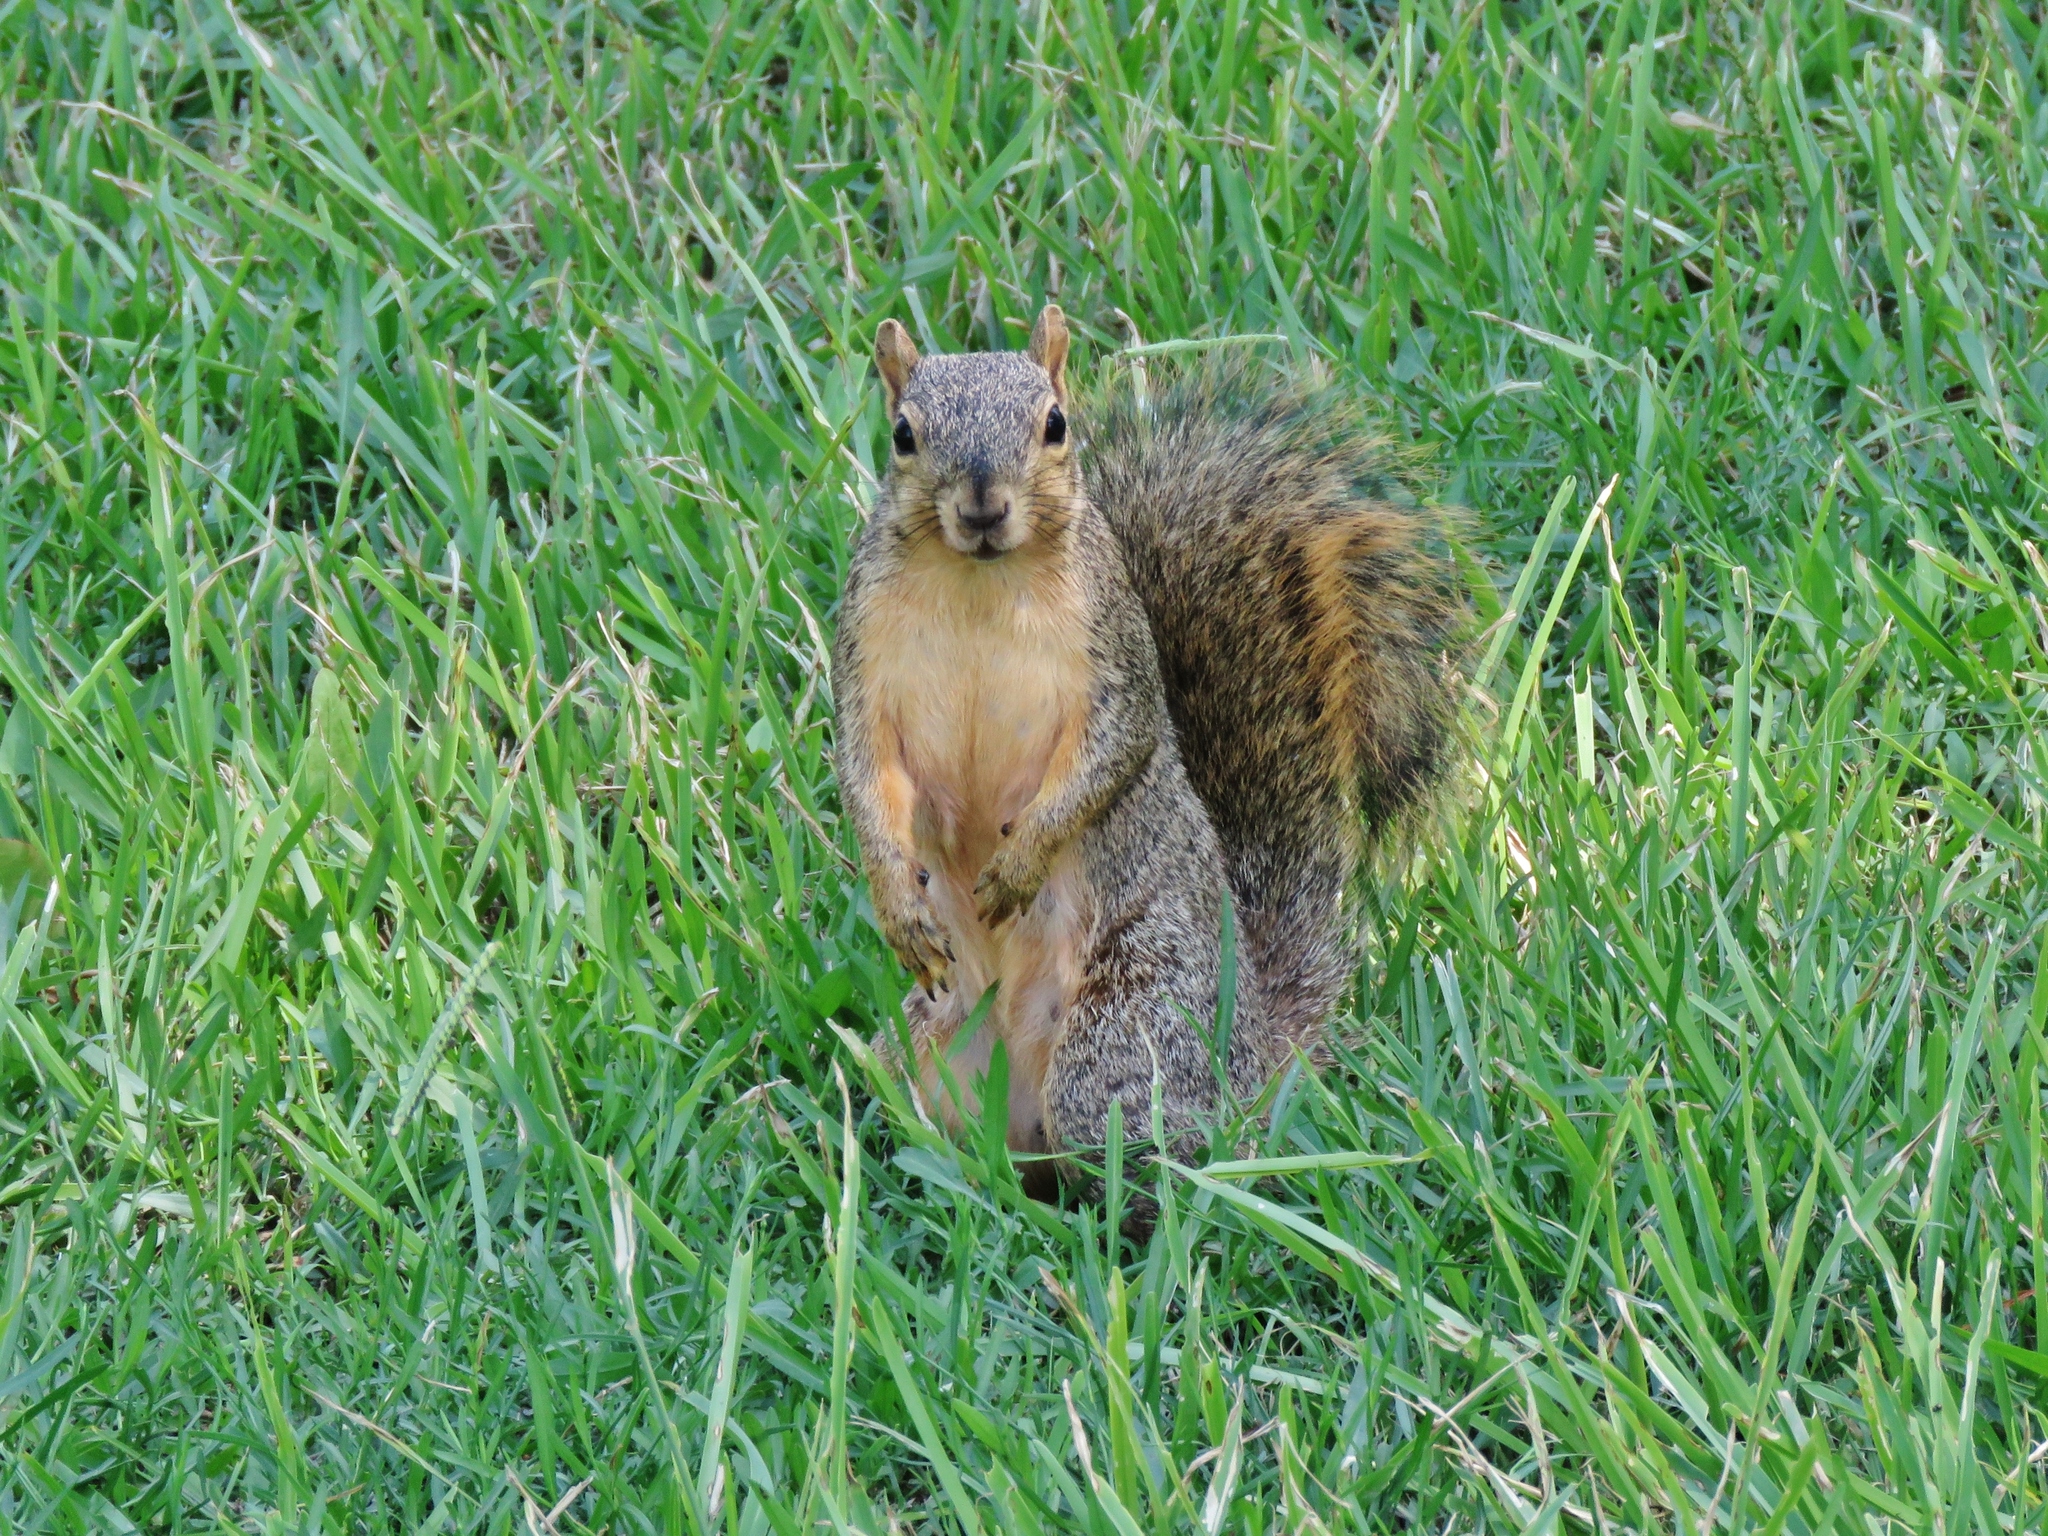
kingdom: Animalia
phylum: Chordata
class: Mammalia
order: Rodentia
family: Sciuridae
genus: Sciurus
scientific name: Sciurus niger
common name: Fox squirrel
